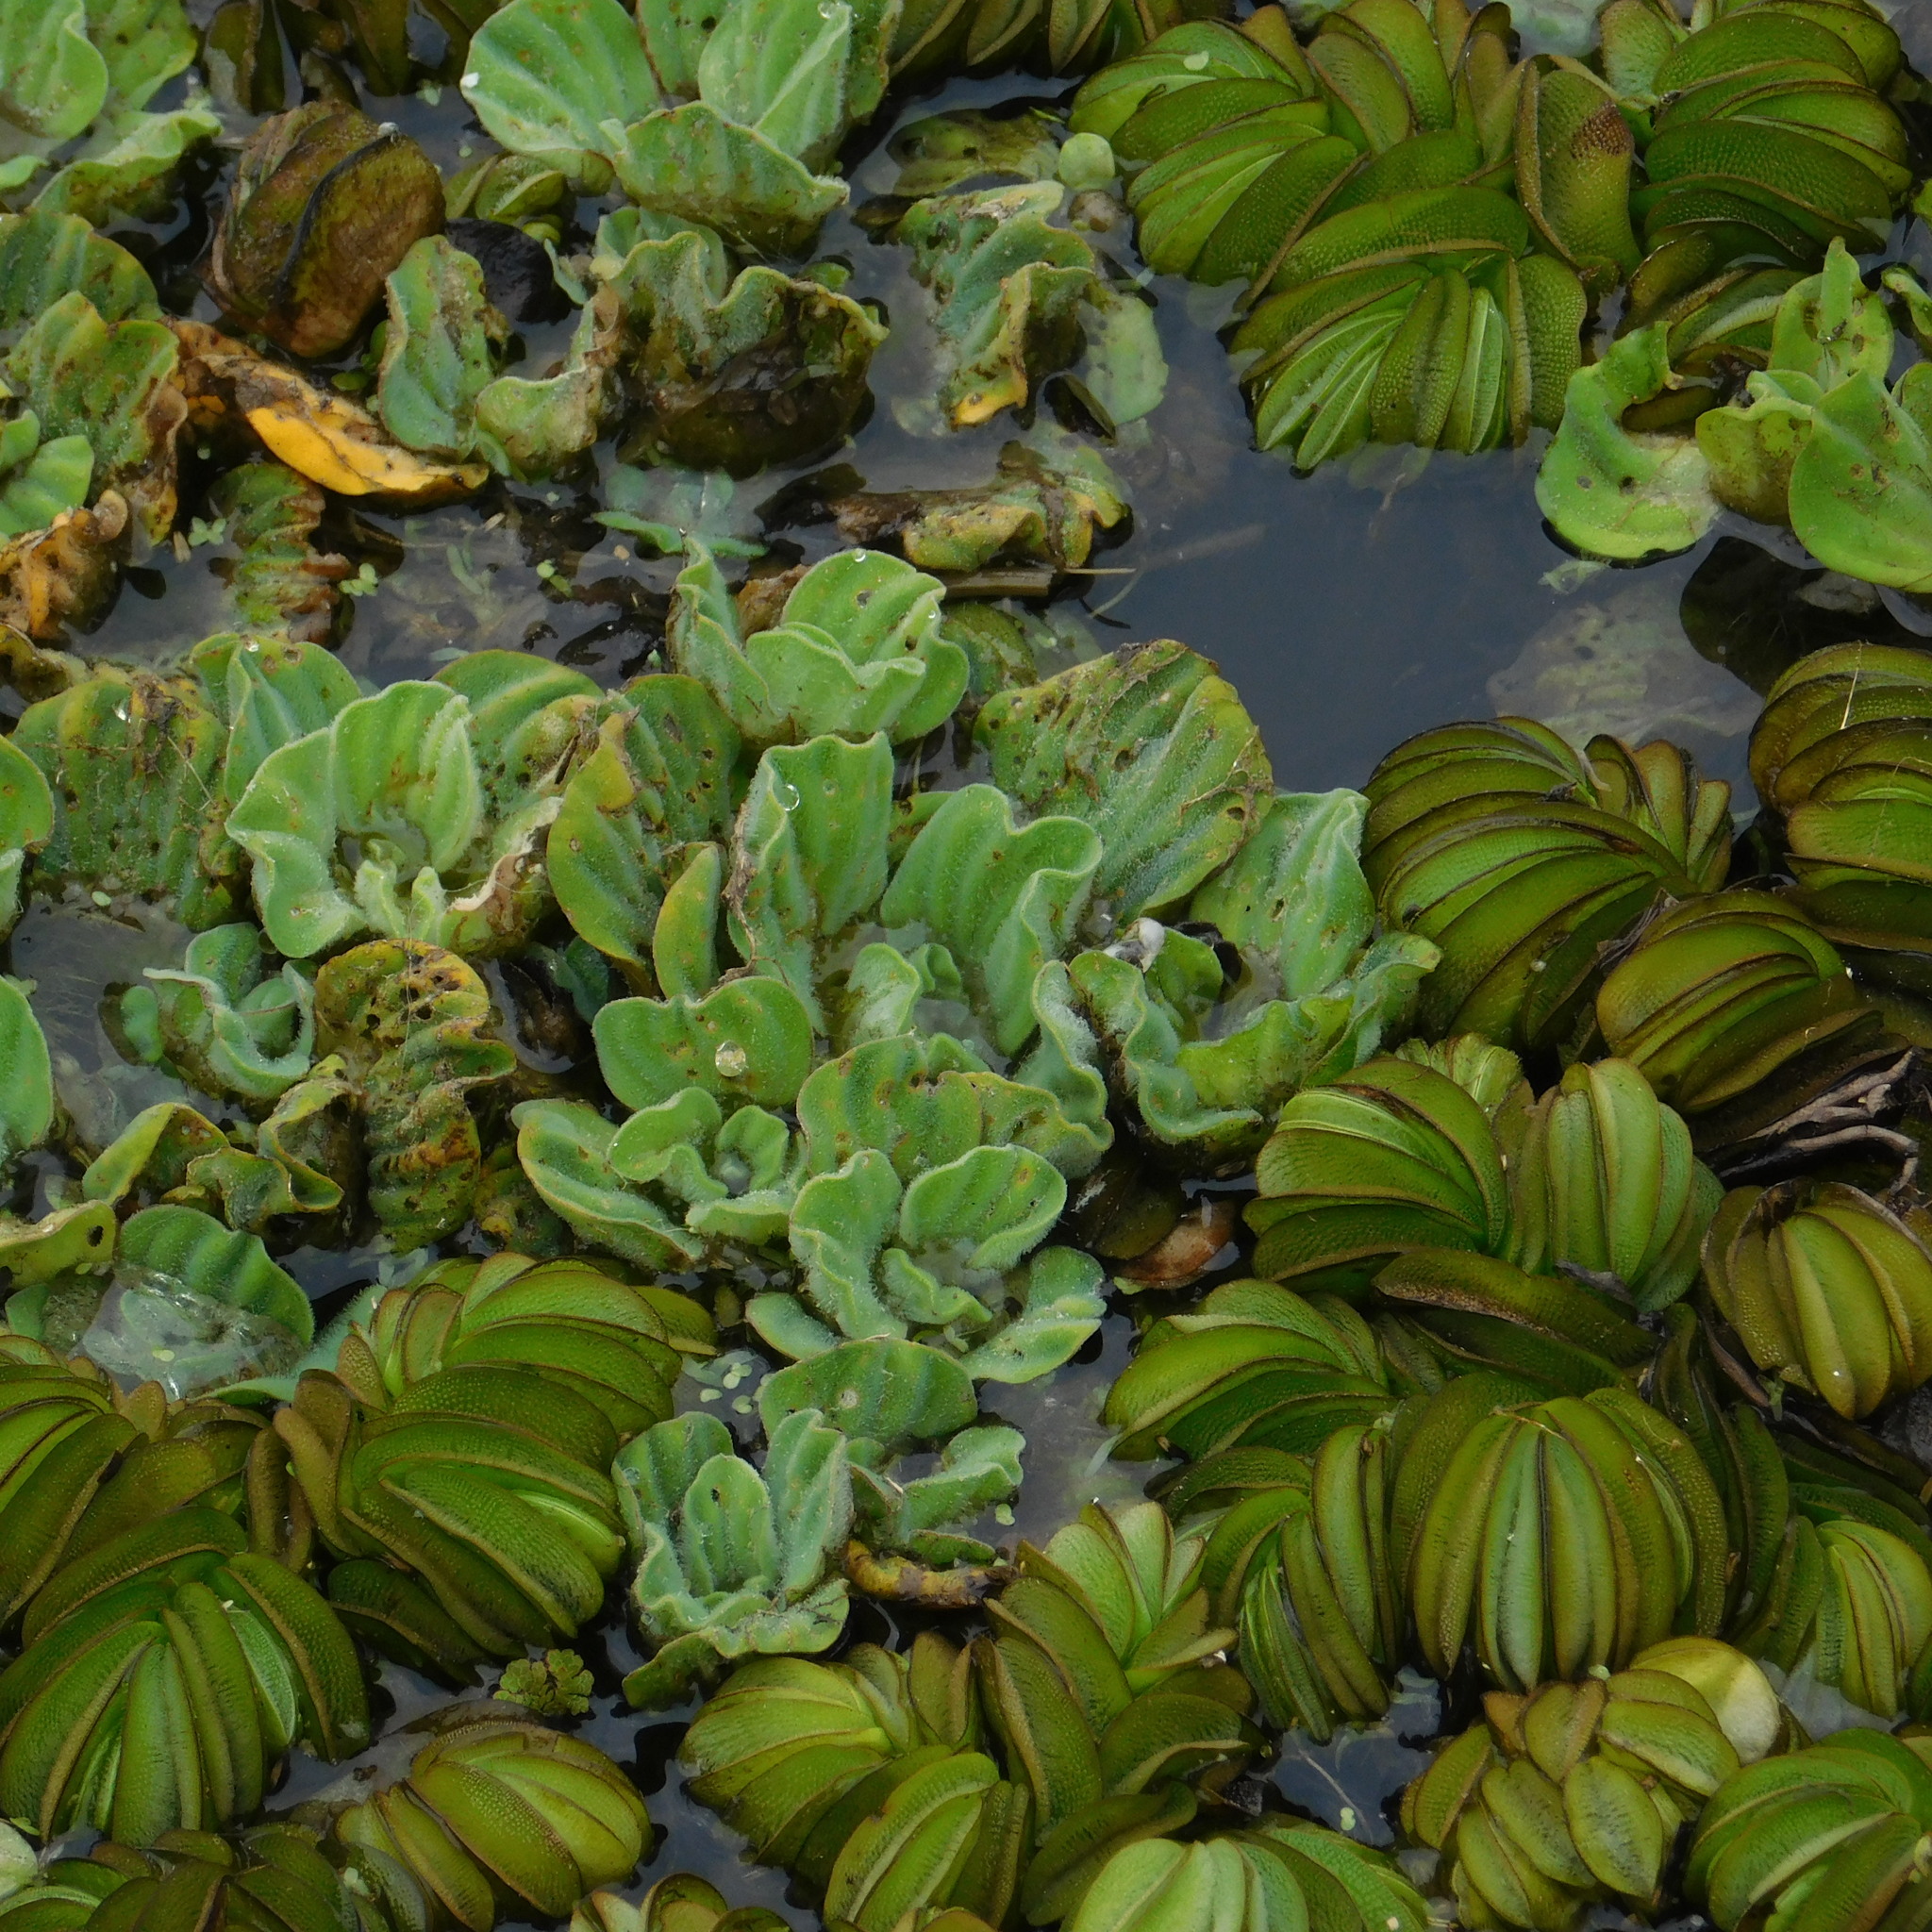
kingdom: Plantae
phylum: Tracheophyta
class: Liliopsida
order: Alismatales
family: Araceae
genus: Pistia
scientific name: Pistia stratiotes
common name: Water lettuce
